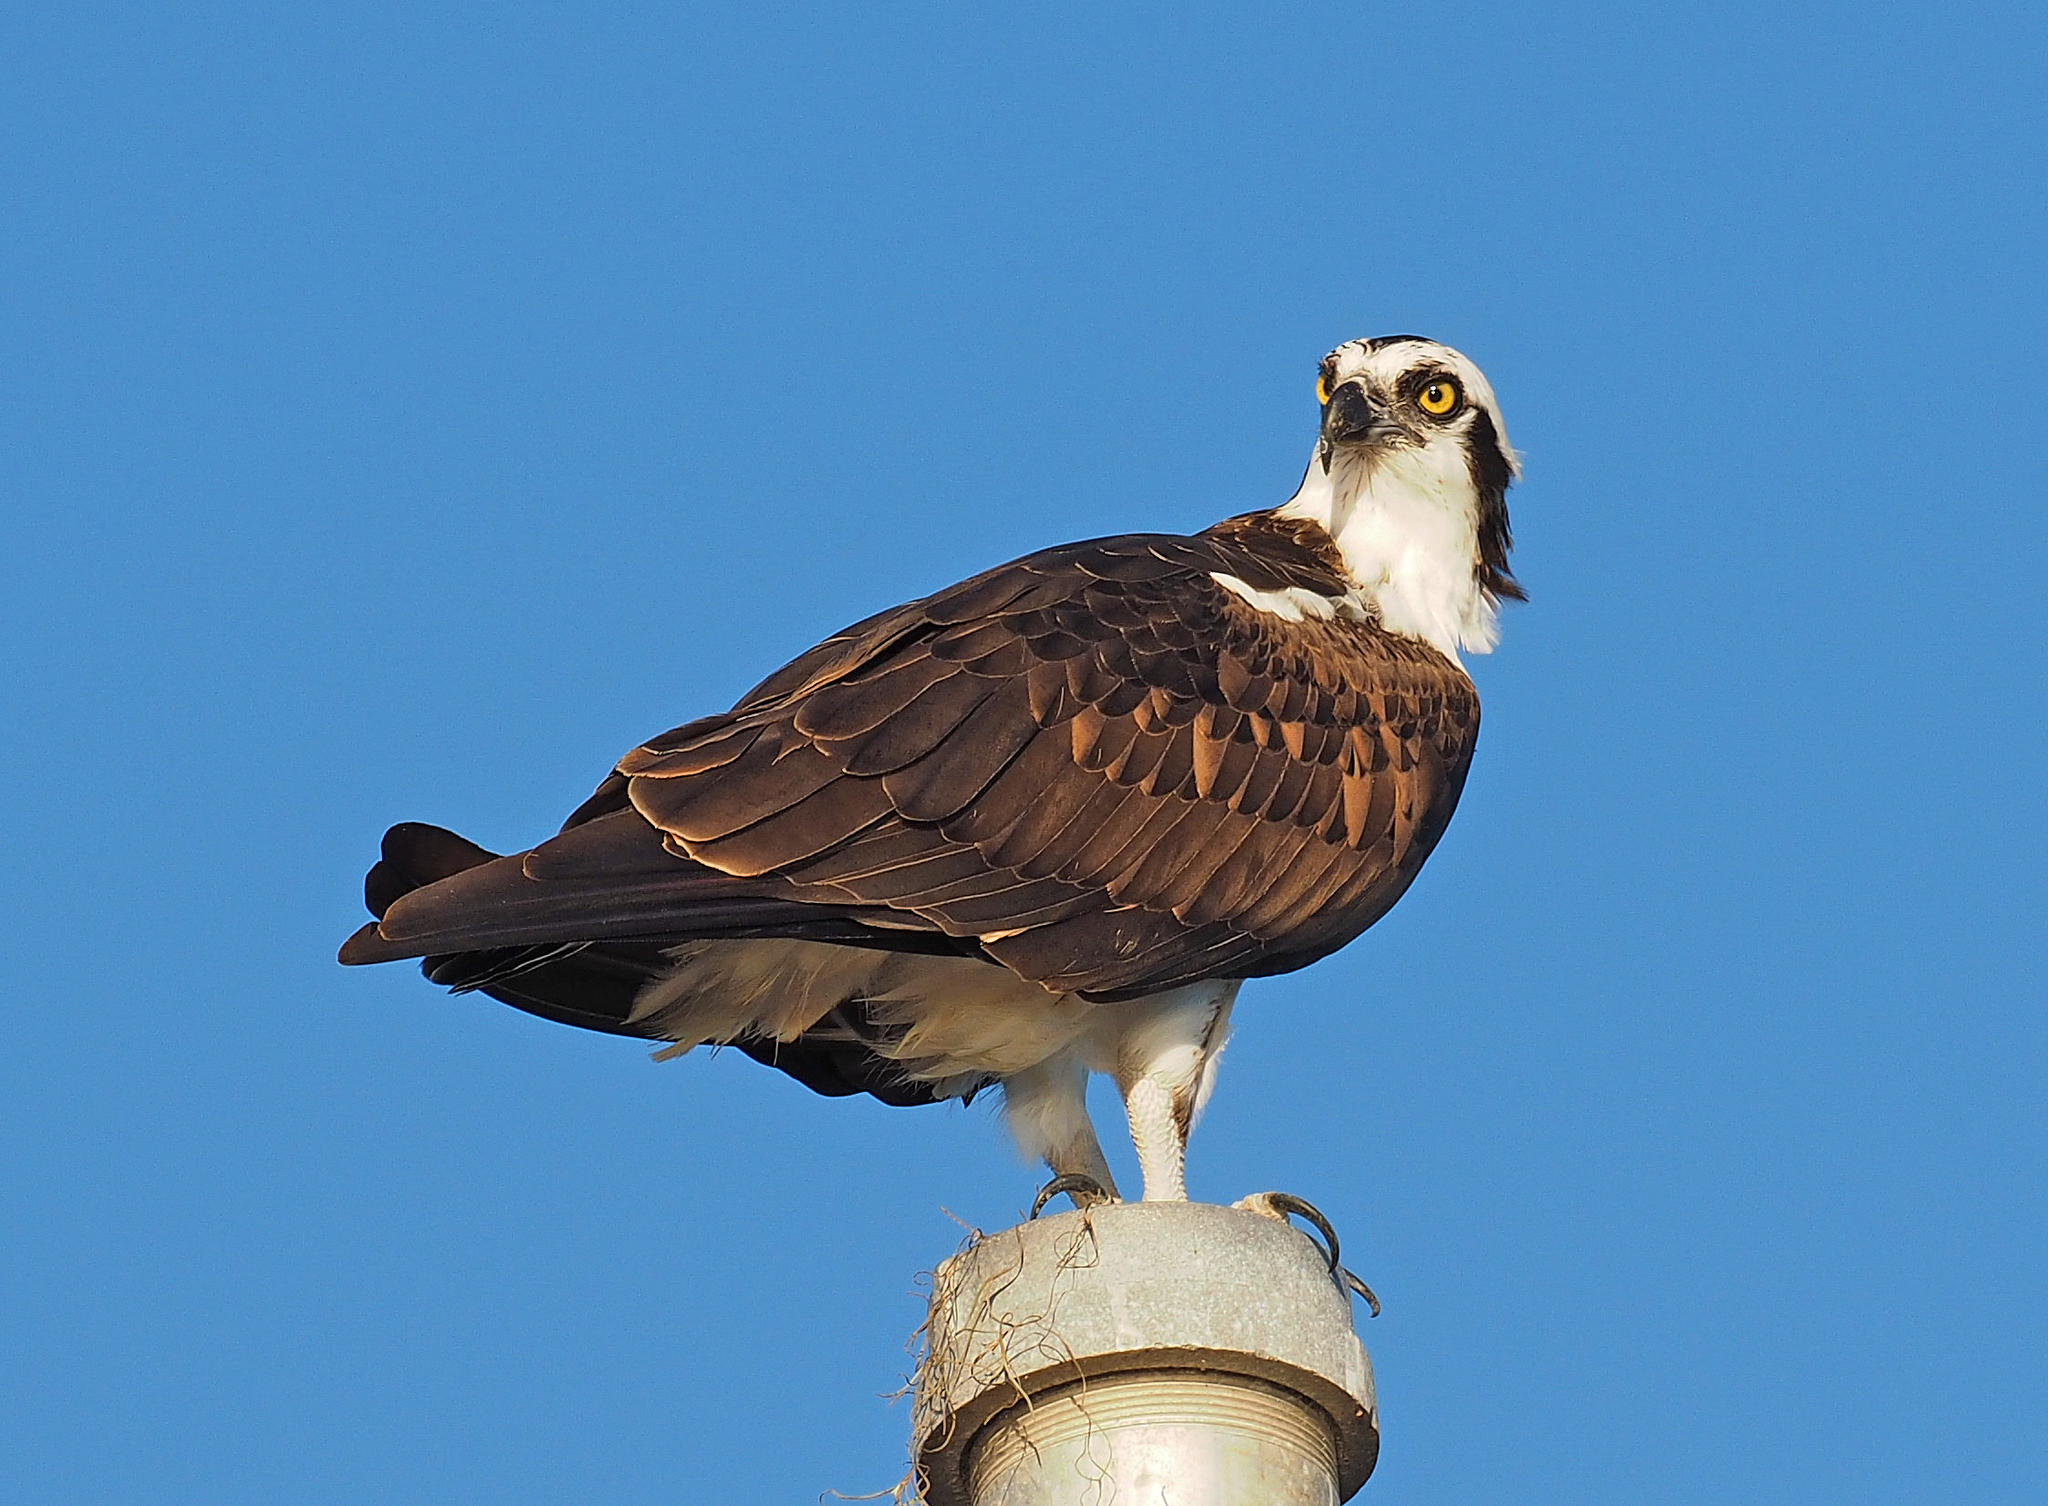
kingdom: Animalia
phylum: Chordata
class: Aves
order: Accipitriformes
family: Pandionidae
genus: Pandion
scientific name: Pandion haliaetus
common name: Osprey
